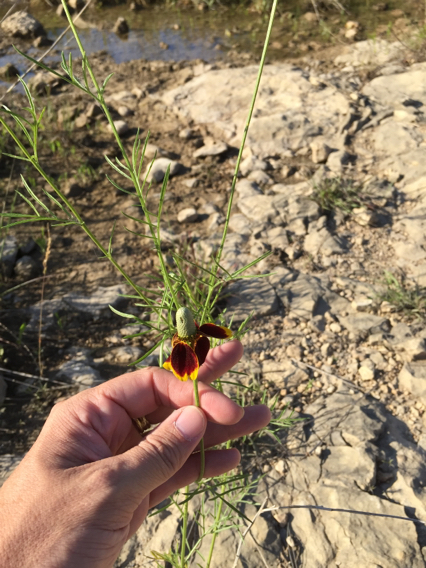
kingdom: Plantae
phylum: Tracheophyta
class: Magnoliopsida
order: Asterales
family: Asteraceae
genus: Ratibida
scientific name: Ratibida columnifera
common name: Prairie coneflower
